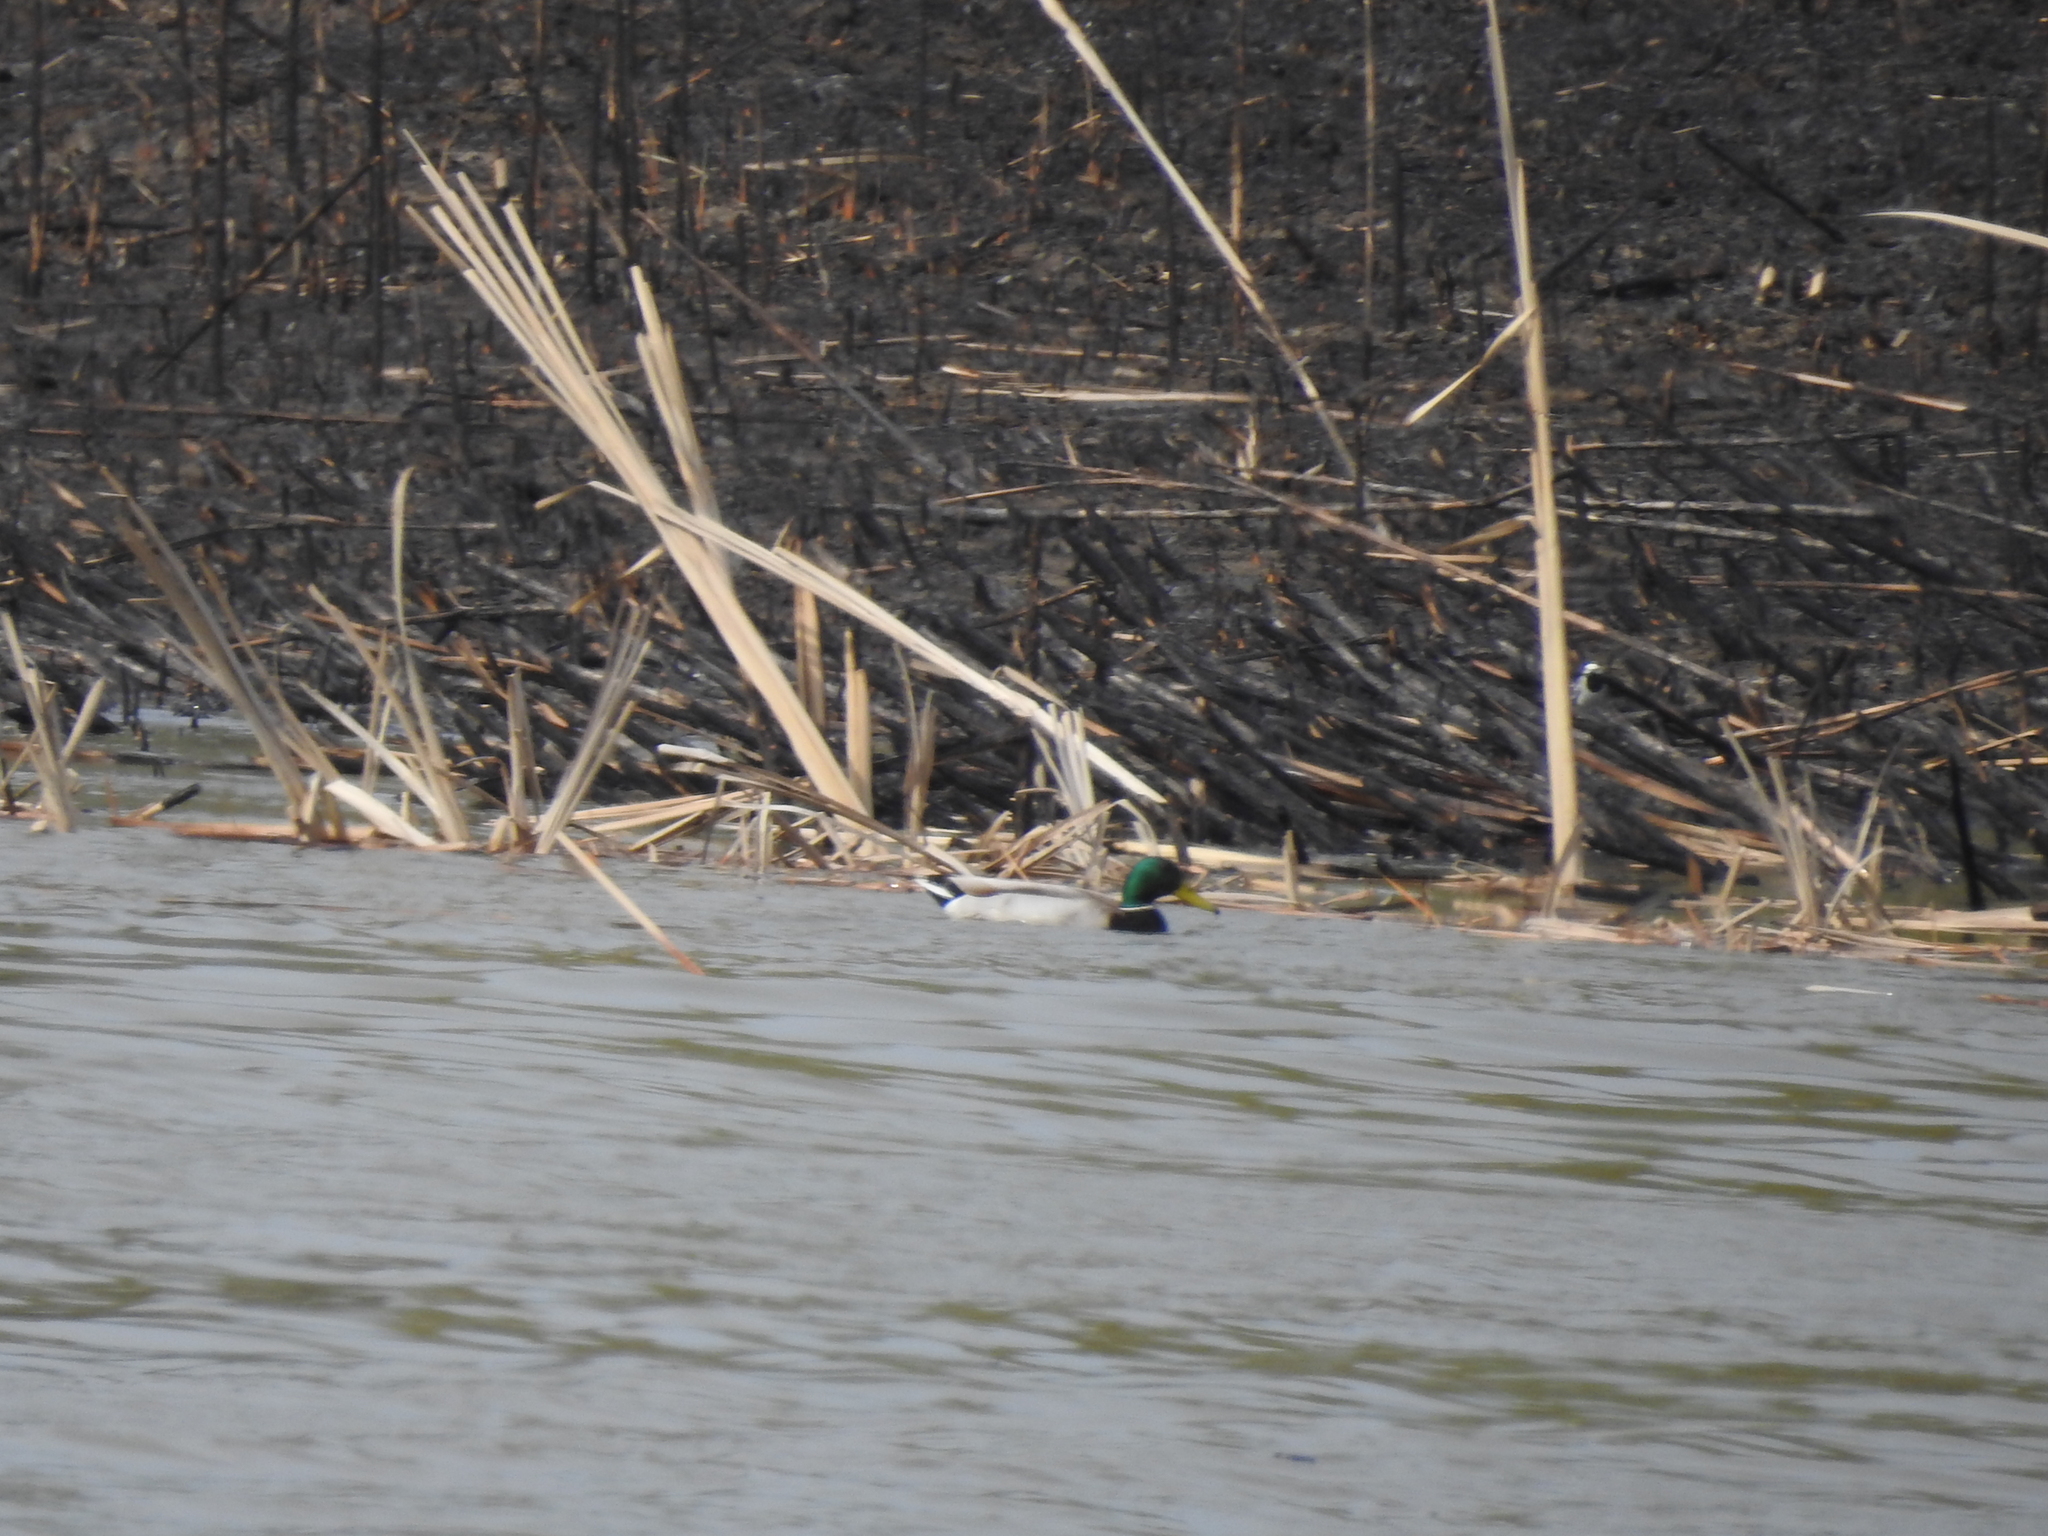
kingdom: Animalia
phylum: Chordata
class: Aves
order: Anseriformes
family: Anatidae
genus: Anas
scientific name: Anas platyrhynchos
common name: Mallard
